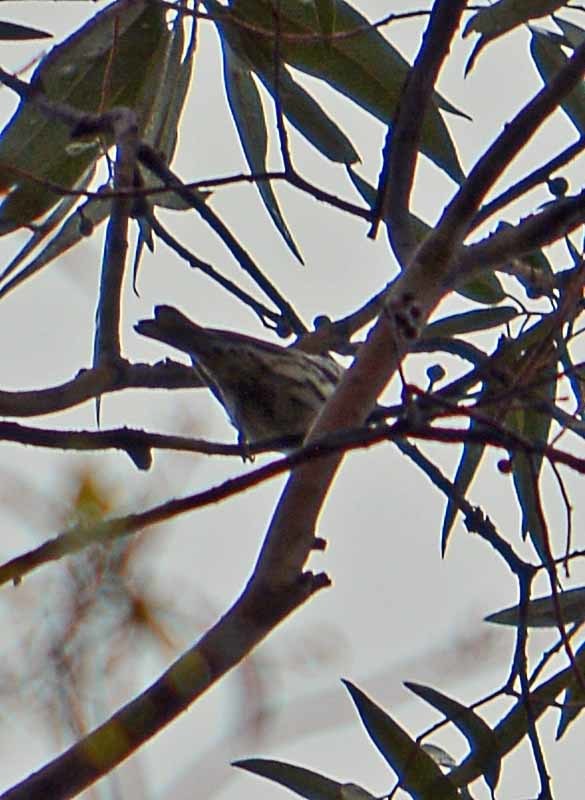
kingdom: Animalia
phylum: Chordata
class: Aves
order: Passeriformes
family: Parulidae
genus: Mniotilta
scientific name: Mniotilta varia
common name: Black-and-white warbler
